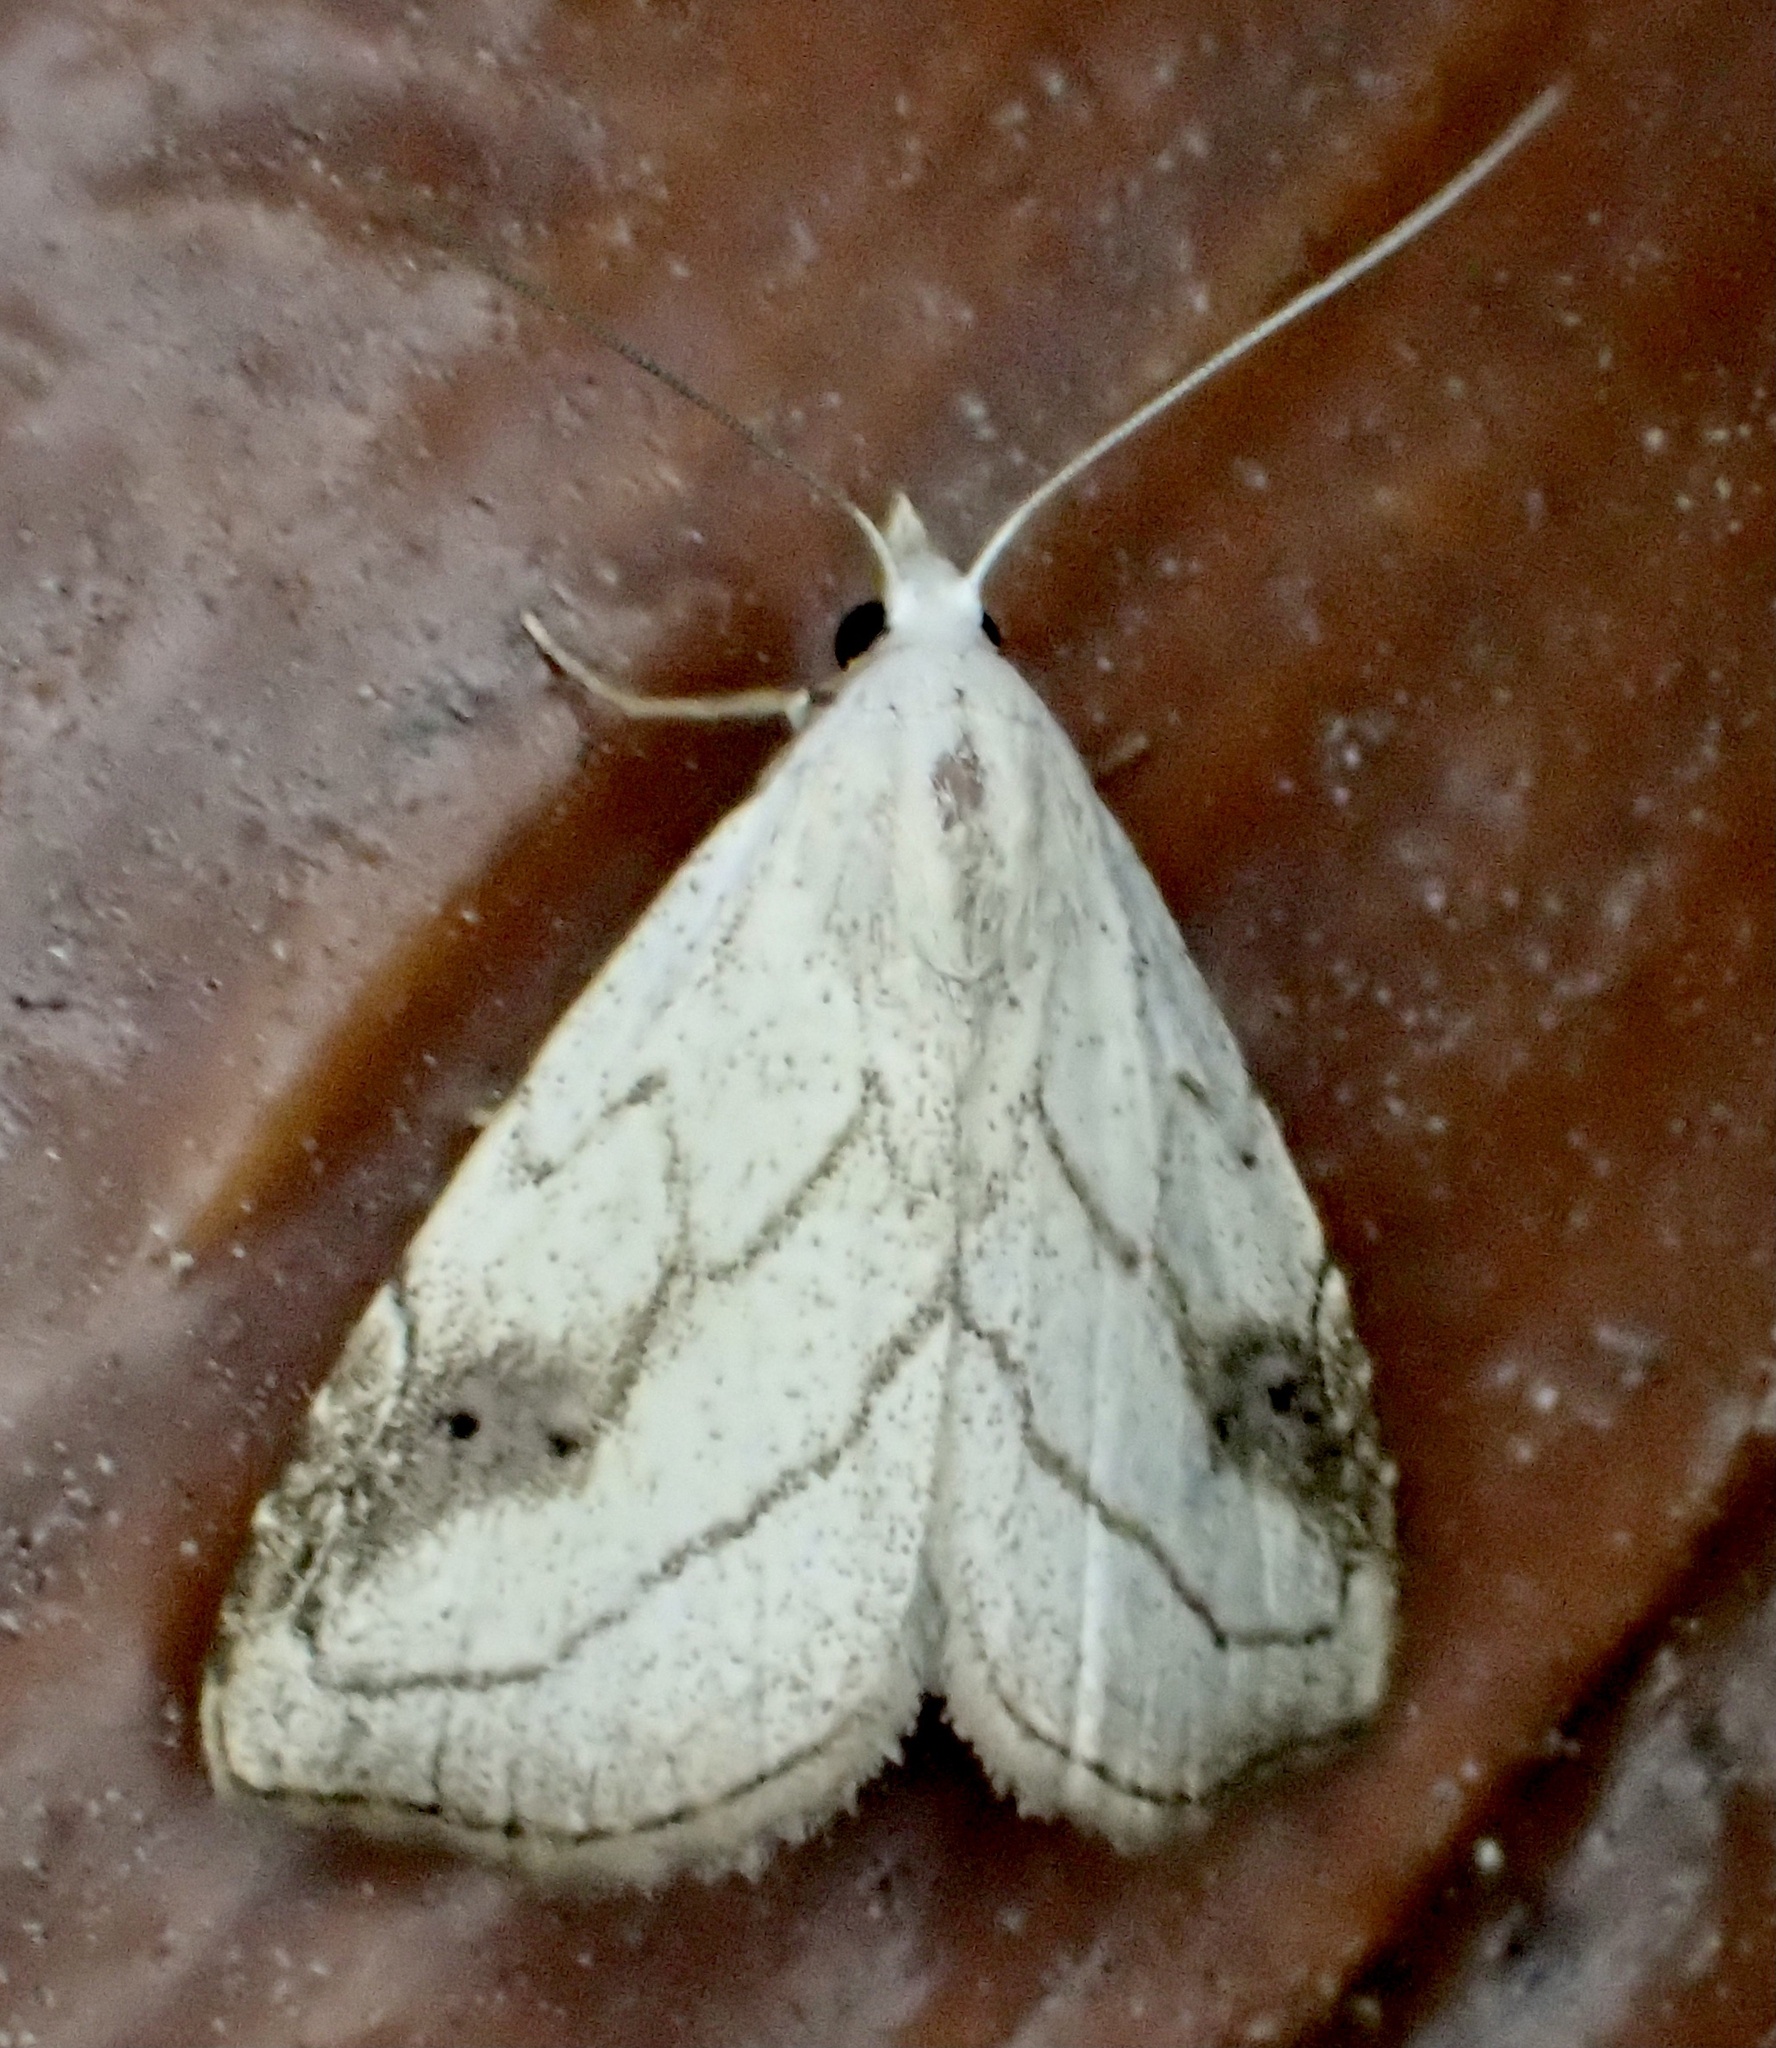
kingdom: Animalia
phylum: Arthropoda
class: Insecta
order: Lepidoptera
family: Erebidae
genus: Rivula
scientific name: Rivula propinqualis
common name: Spotted grass moth
